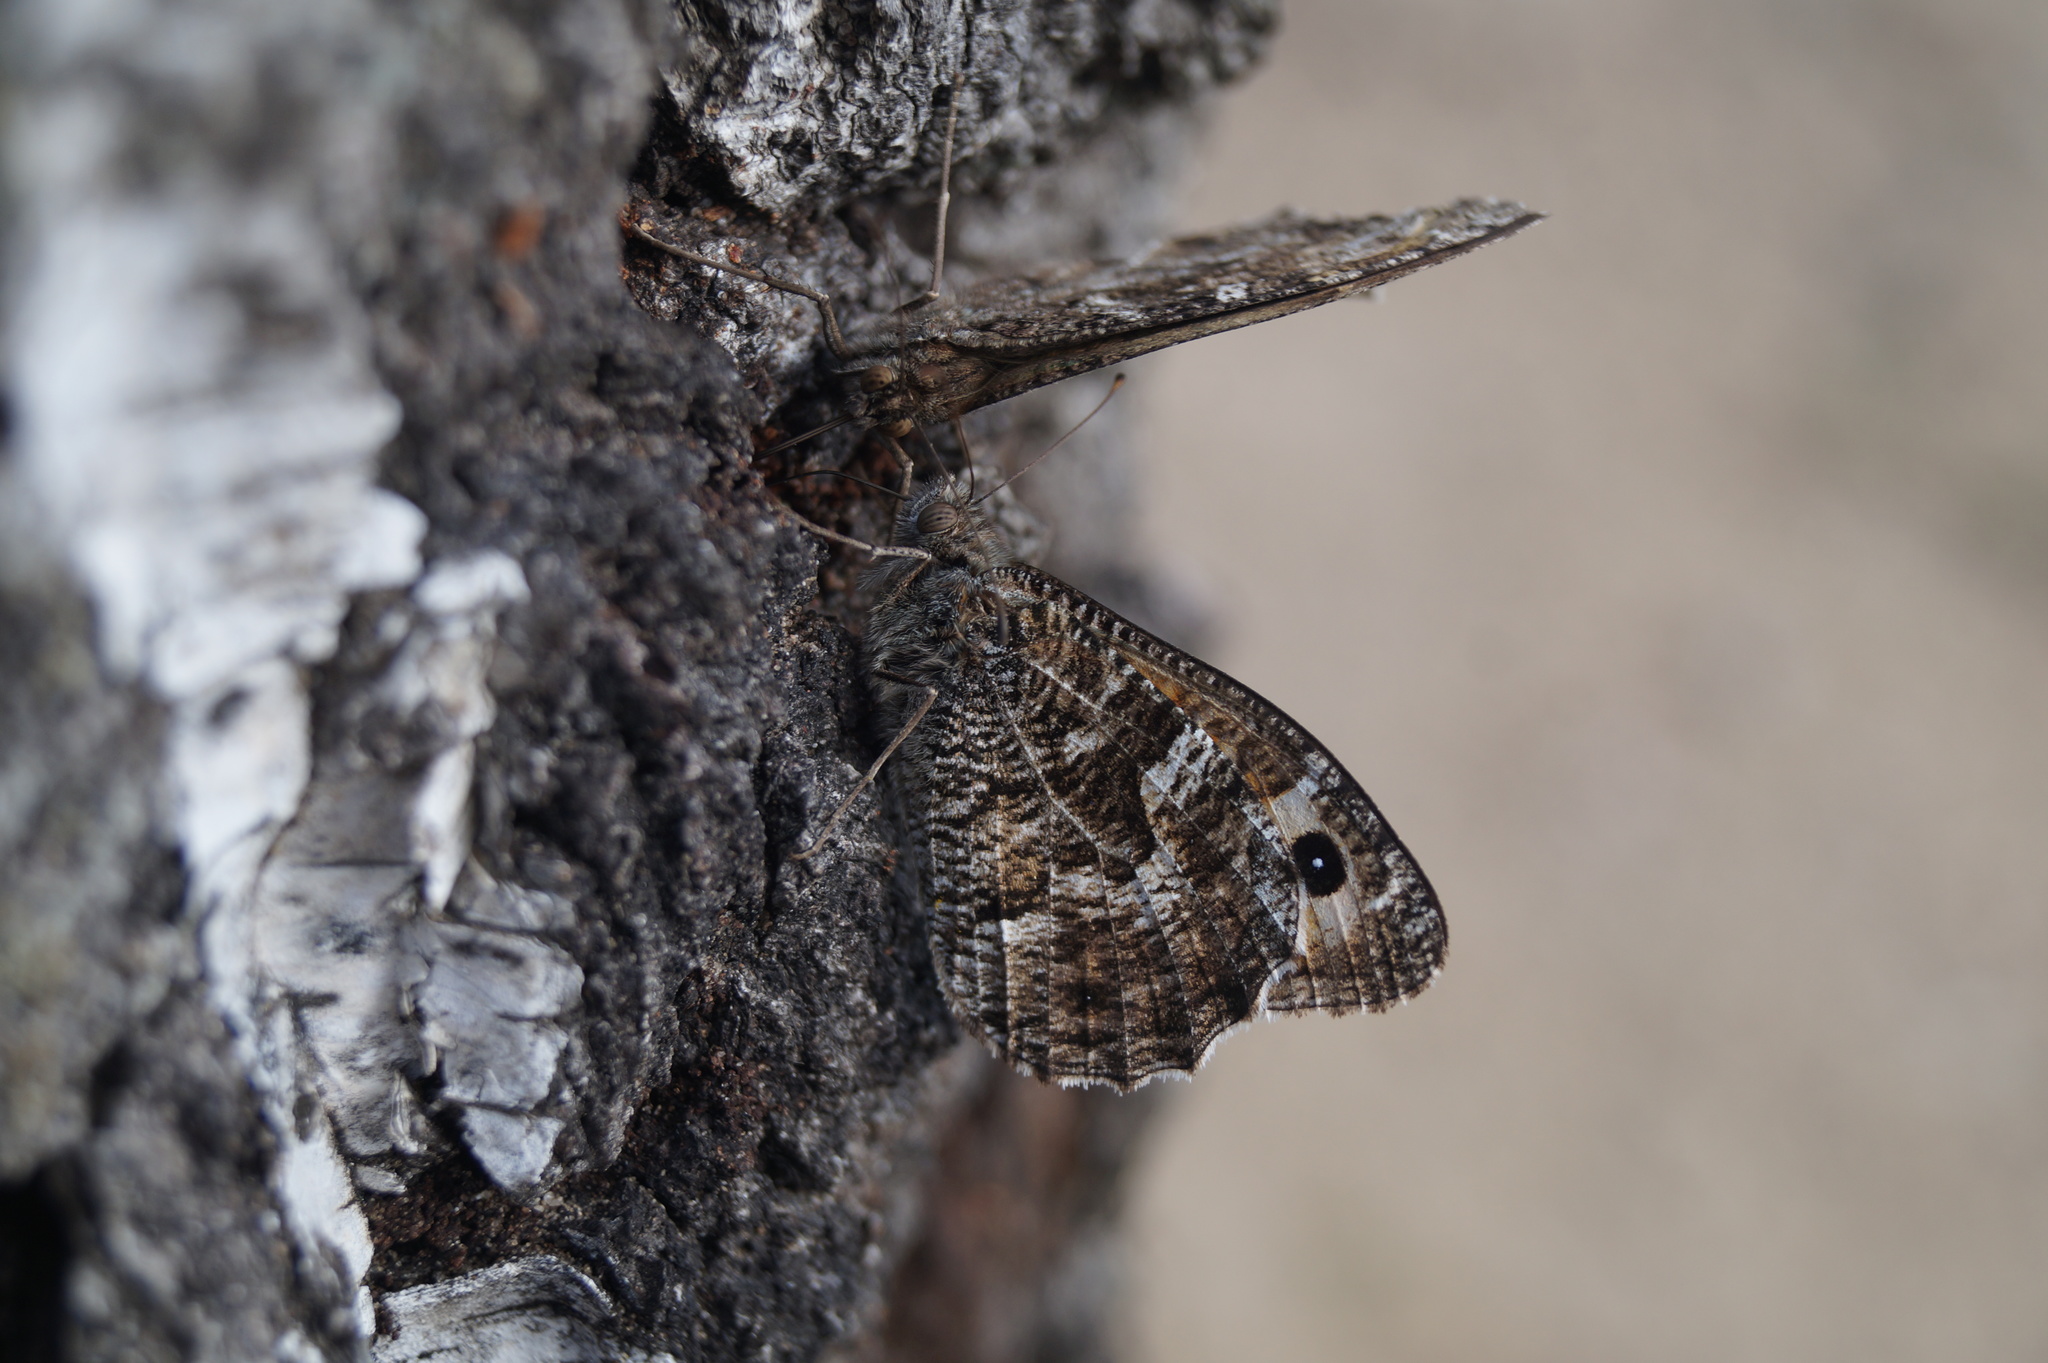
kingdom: Animalia
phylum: Arthropoda
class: Insecta
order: Lepidoptera
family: Nymphalidae
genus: Hipparchia
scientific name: Hipparchia semele
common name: Grayling
